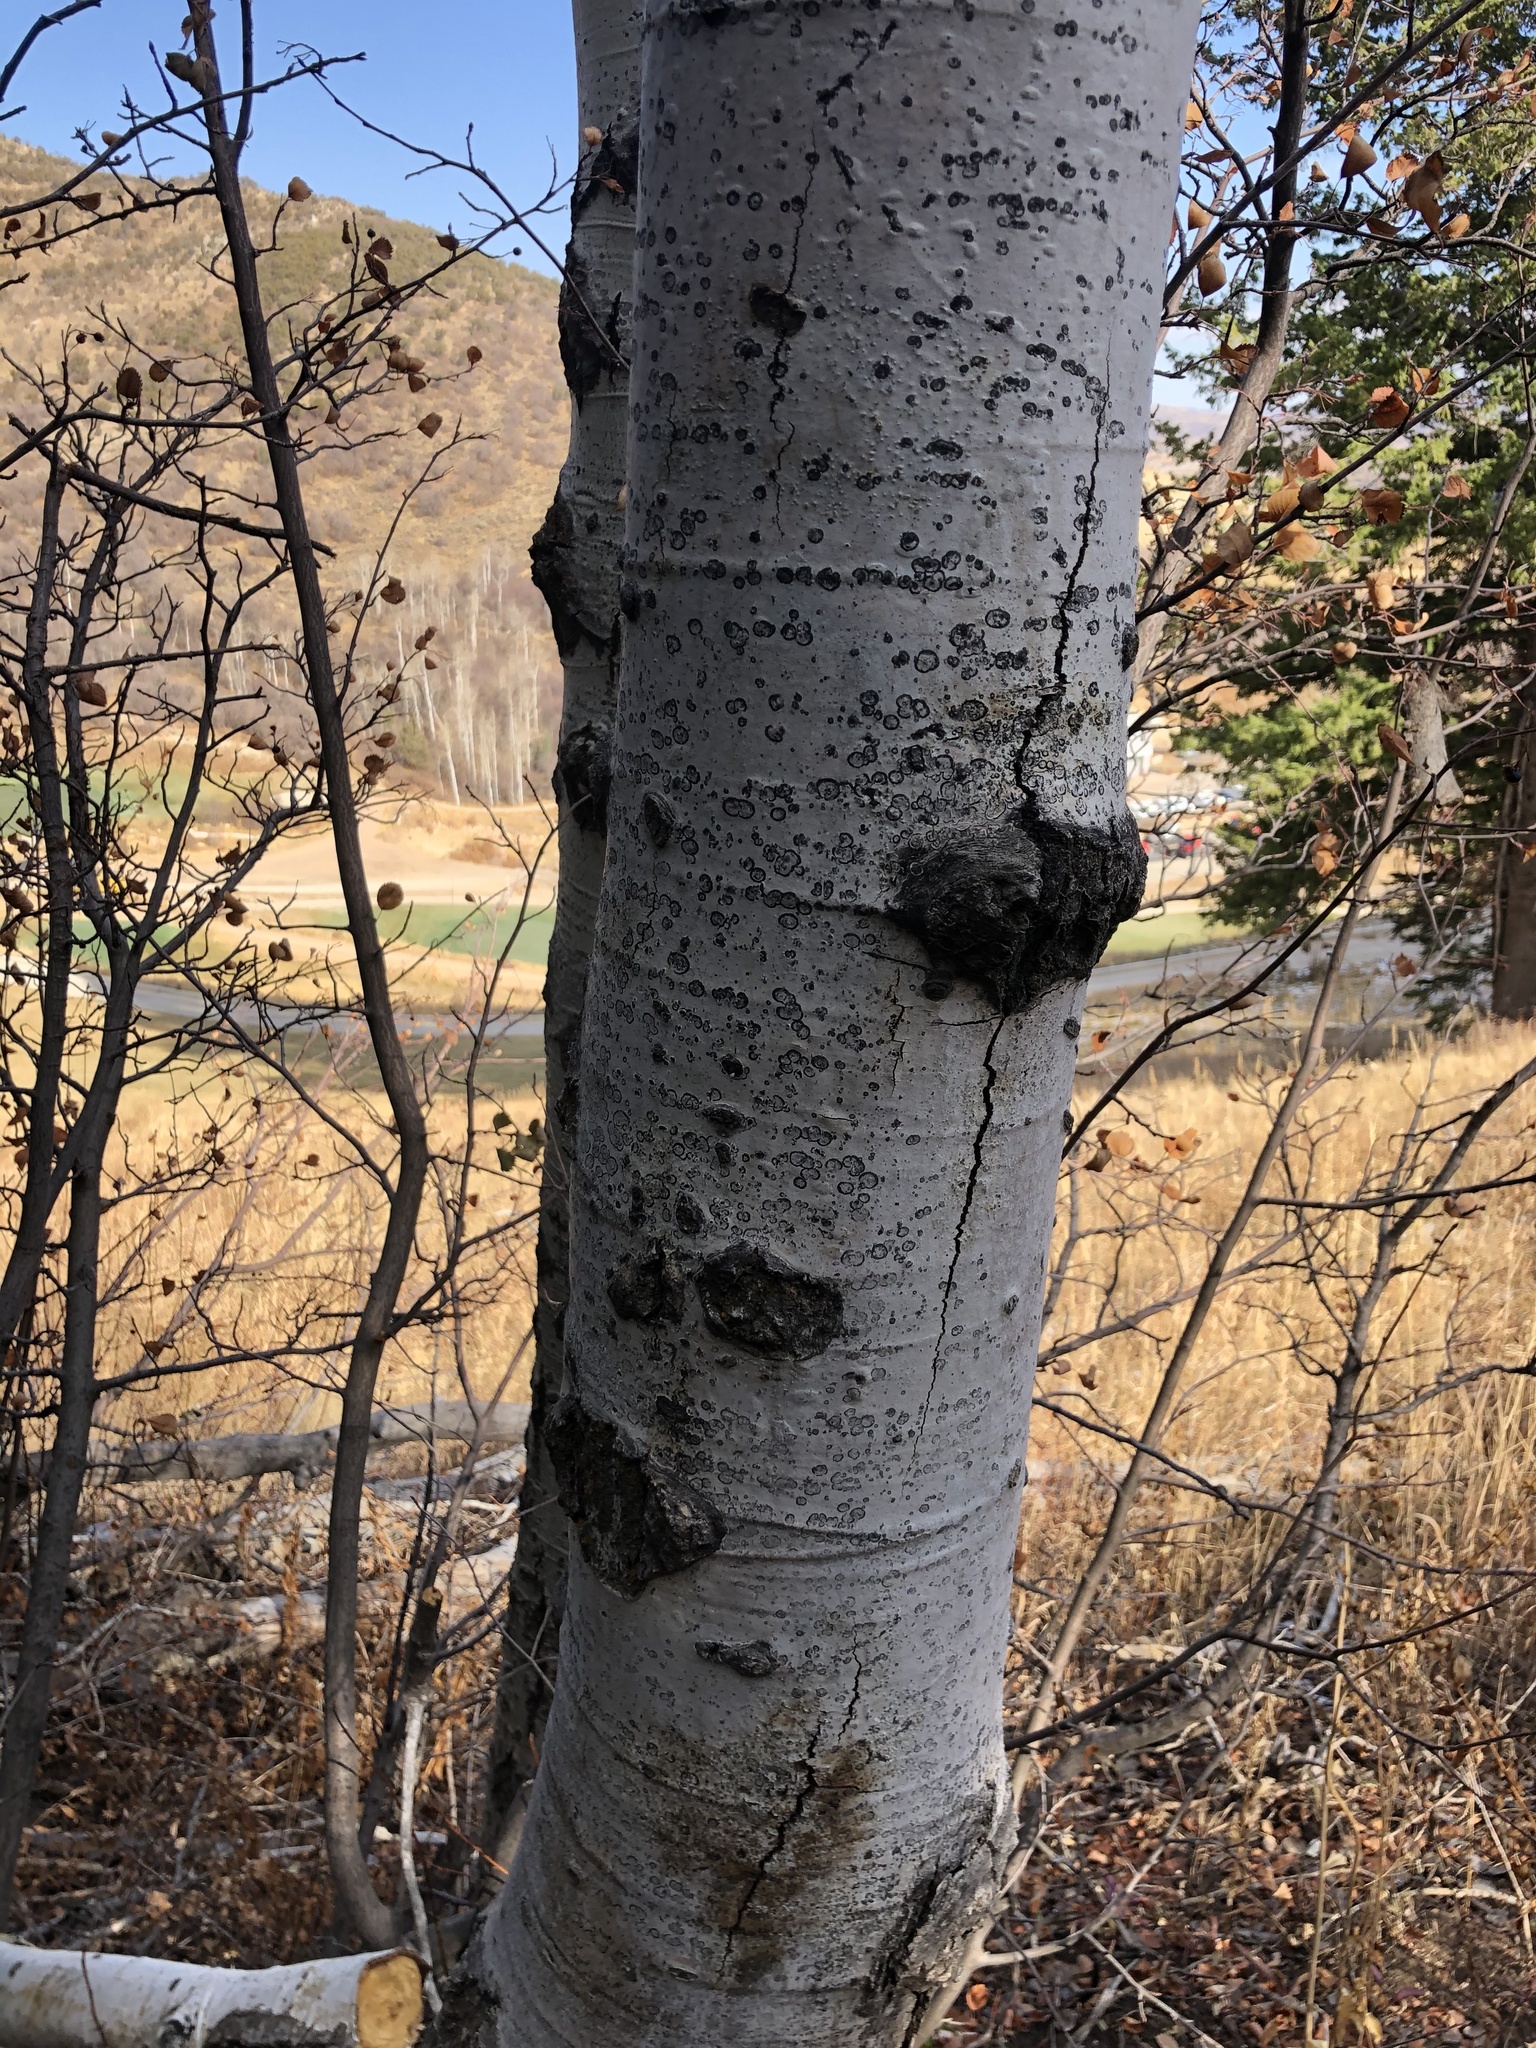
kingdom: Plantae
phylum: Tracheophyta
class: Magnoliopsida
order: Malpighiales
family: Salicaceae
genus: Populus
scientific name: Populus tremuloides
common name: Quaking aspen
